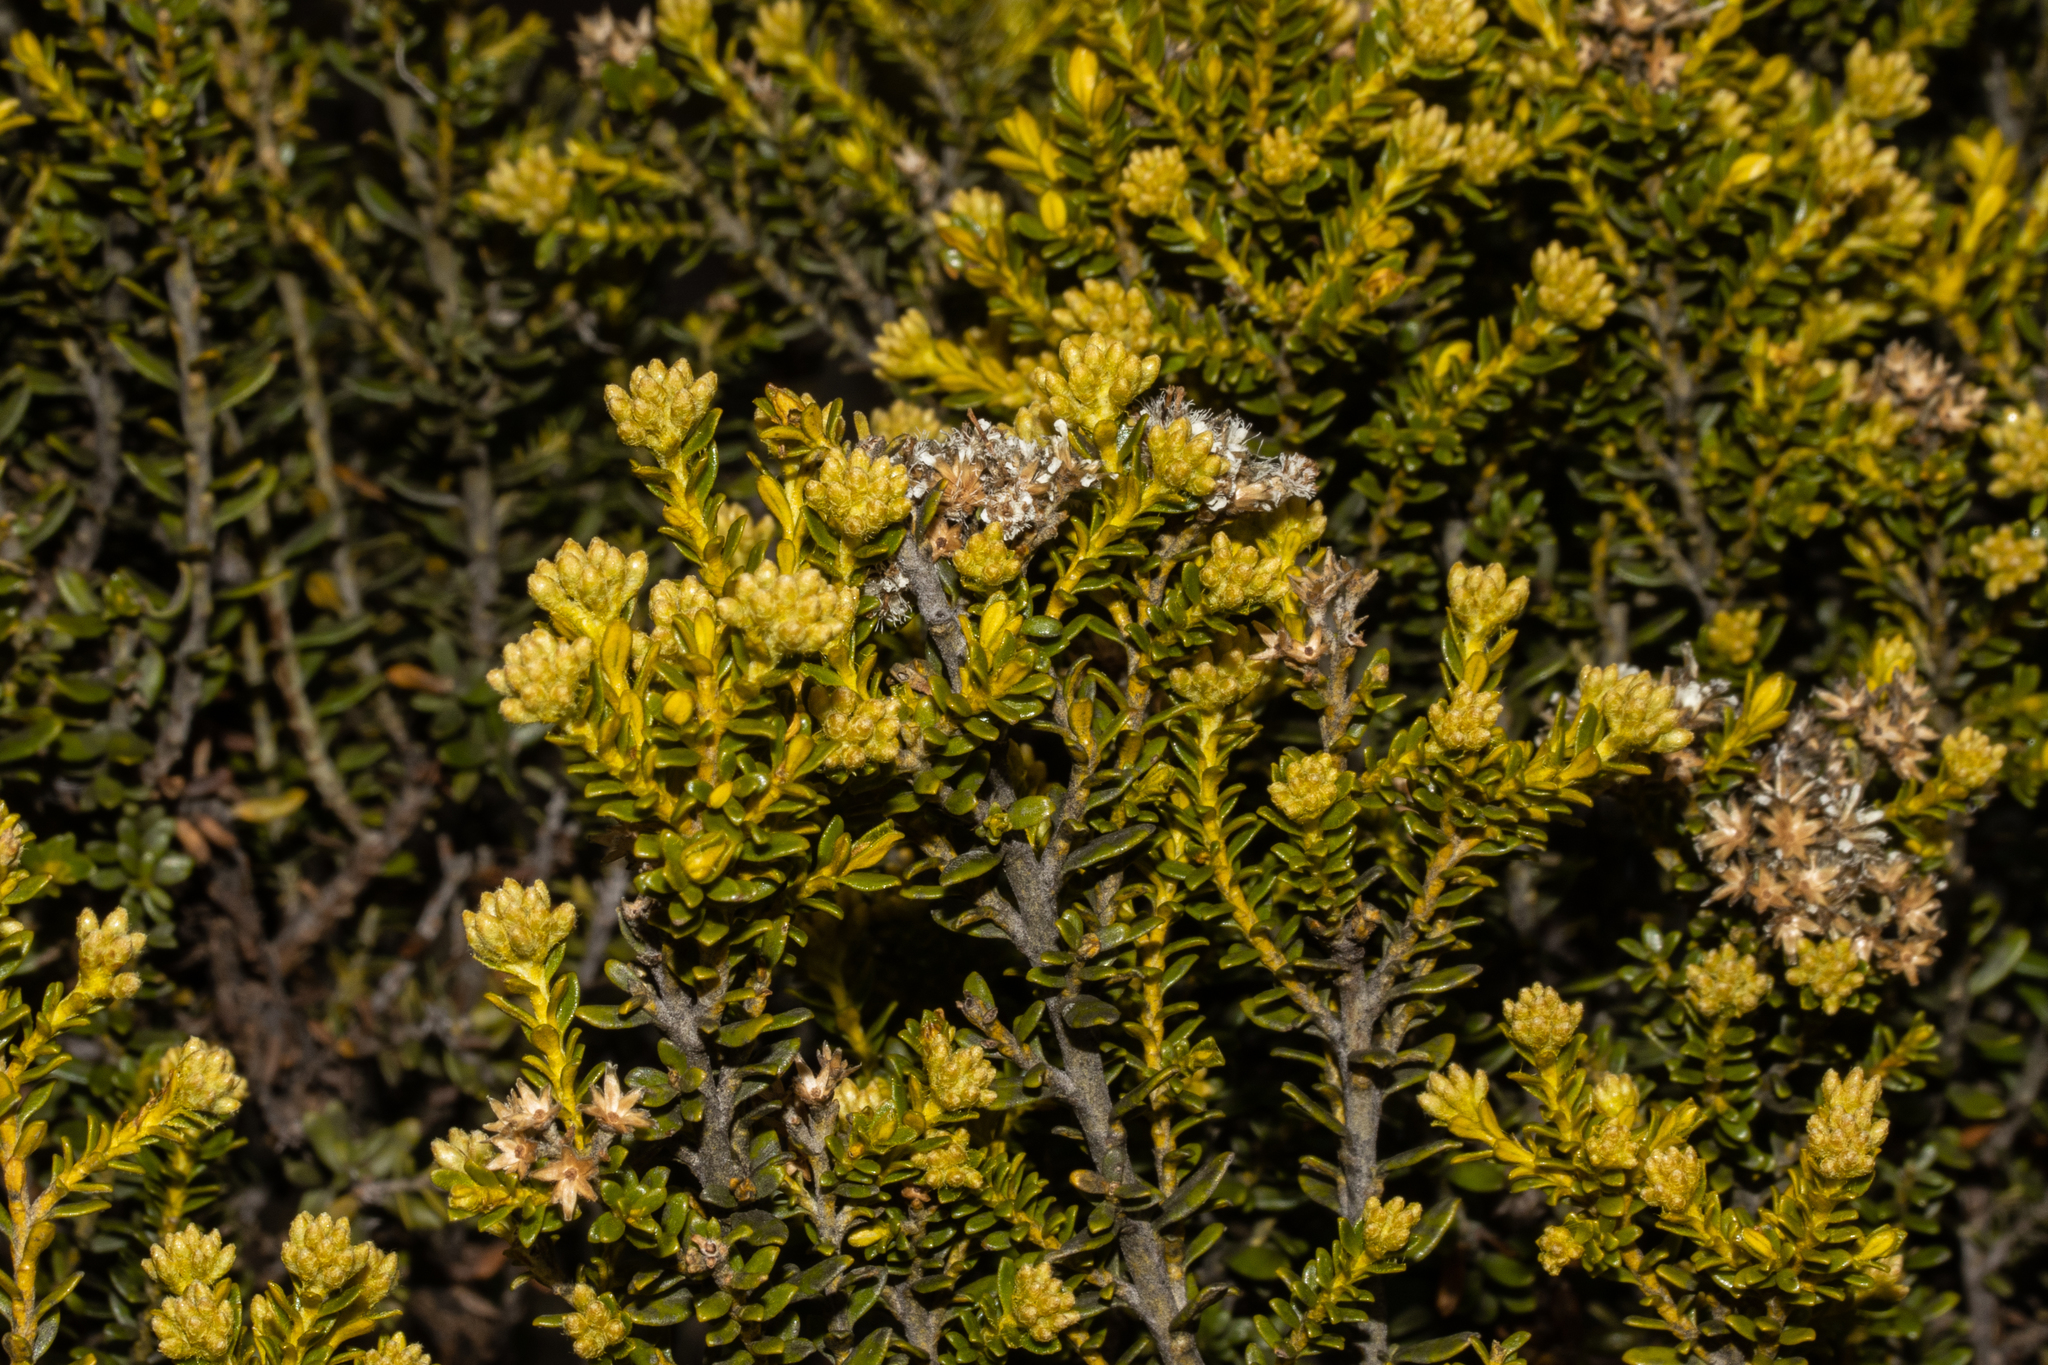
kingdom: Plantae
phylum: Tracheophyta
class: Magnoliopsida
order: Asterales
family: Asteraceae
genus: Ozothamnus
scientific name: Ozothamnus leptophyllus
